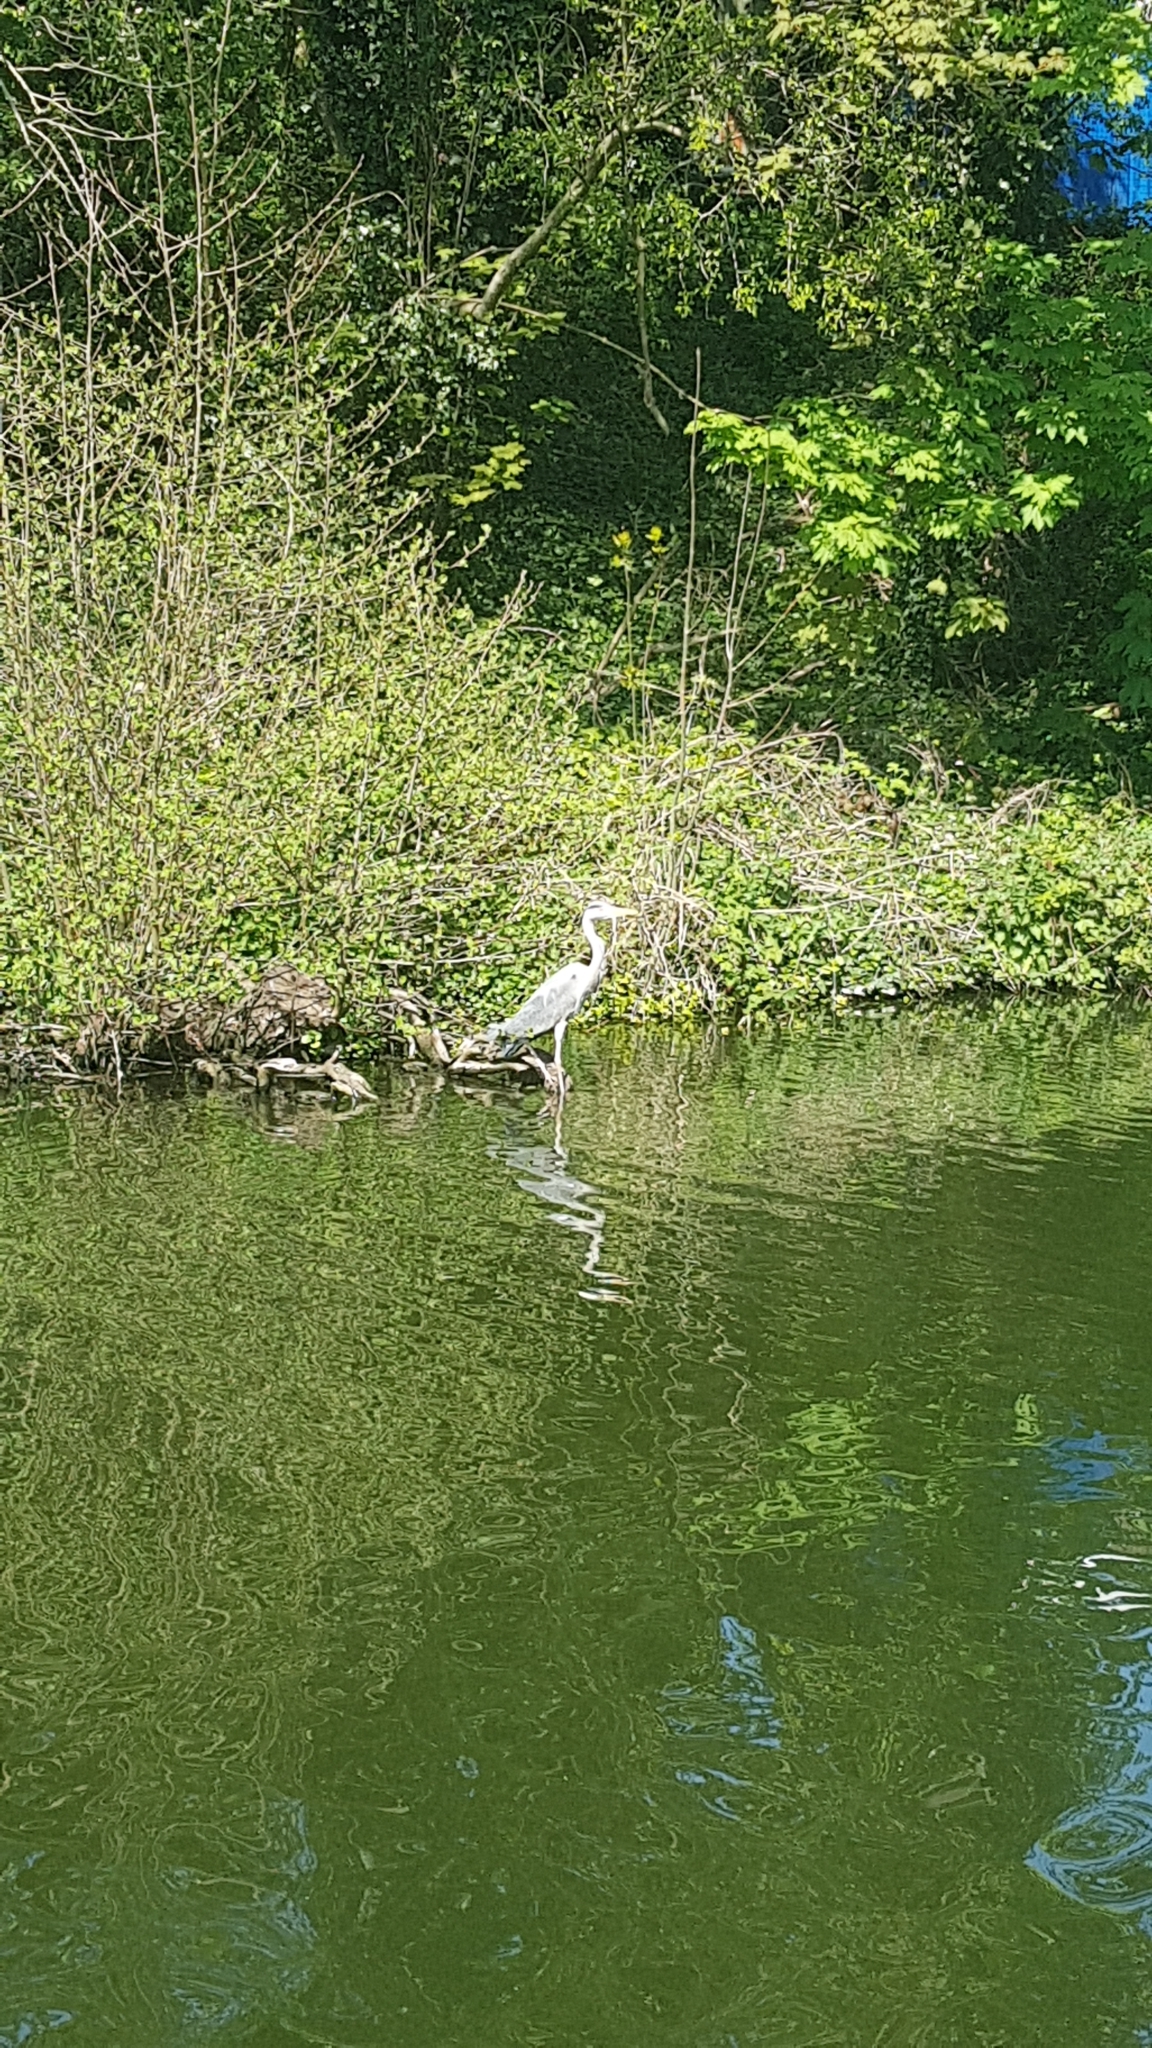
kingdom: Animalia
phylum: Chordata
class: Aves
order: Pelecaniformes
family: Ardeidae
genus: Ardea
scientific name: Ardea cinerea
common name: Grey heron
